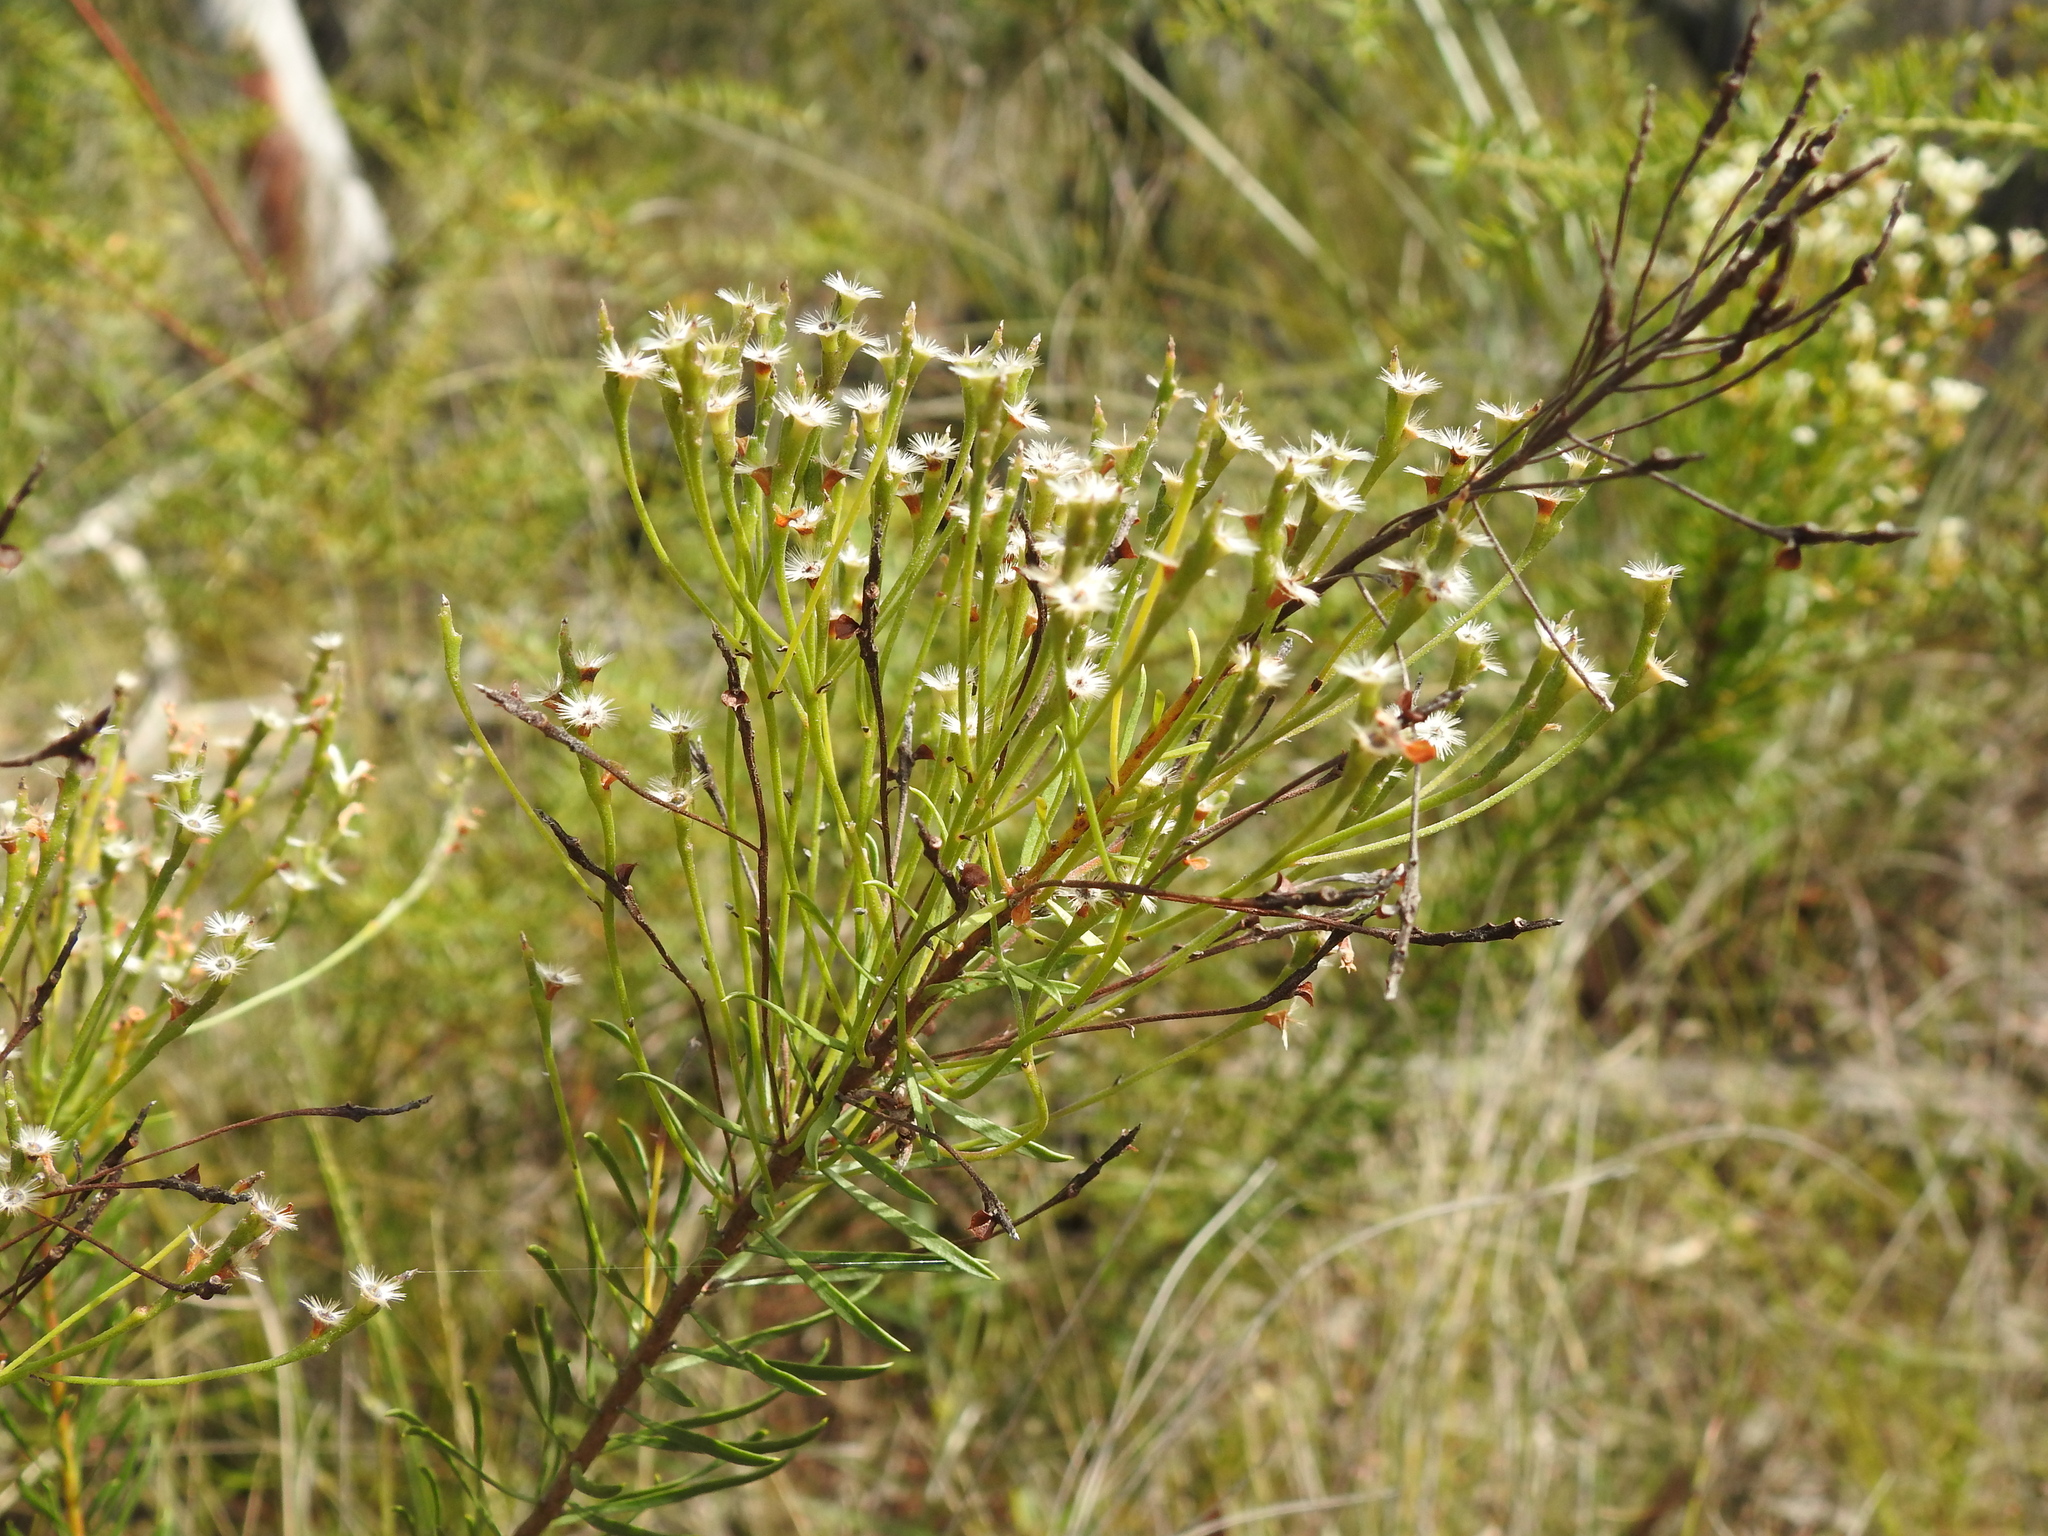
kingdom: Plantae
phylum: Tracheophyta
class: Magnoliopsida
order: Proteales
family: Proteaceae
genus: Conospermum
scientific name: Conospermum taxifolium
